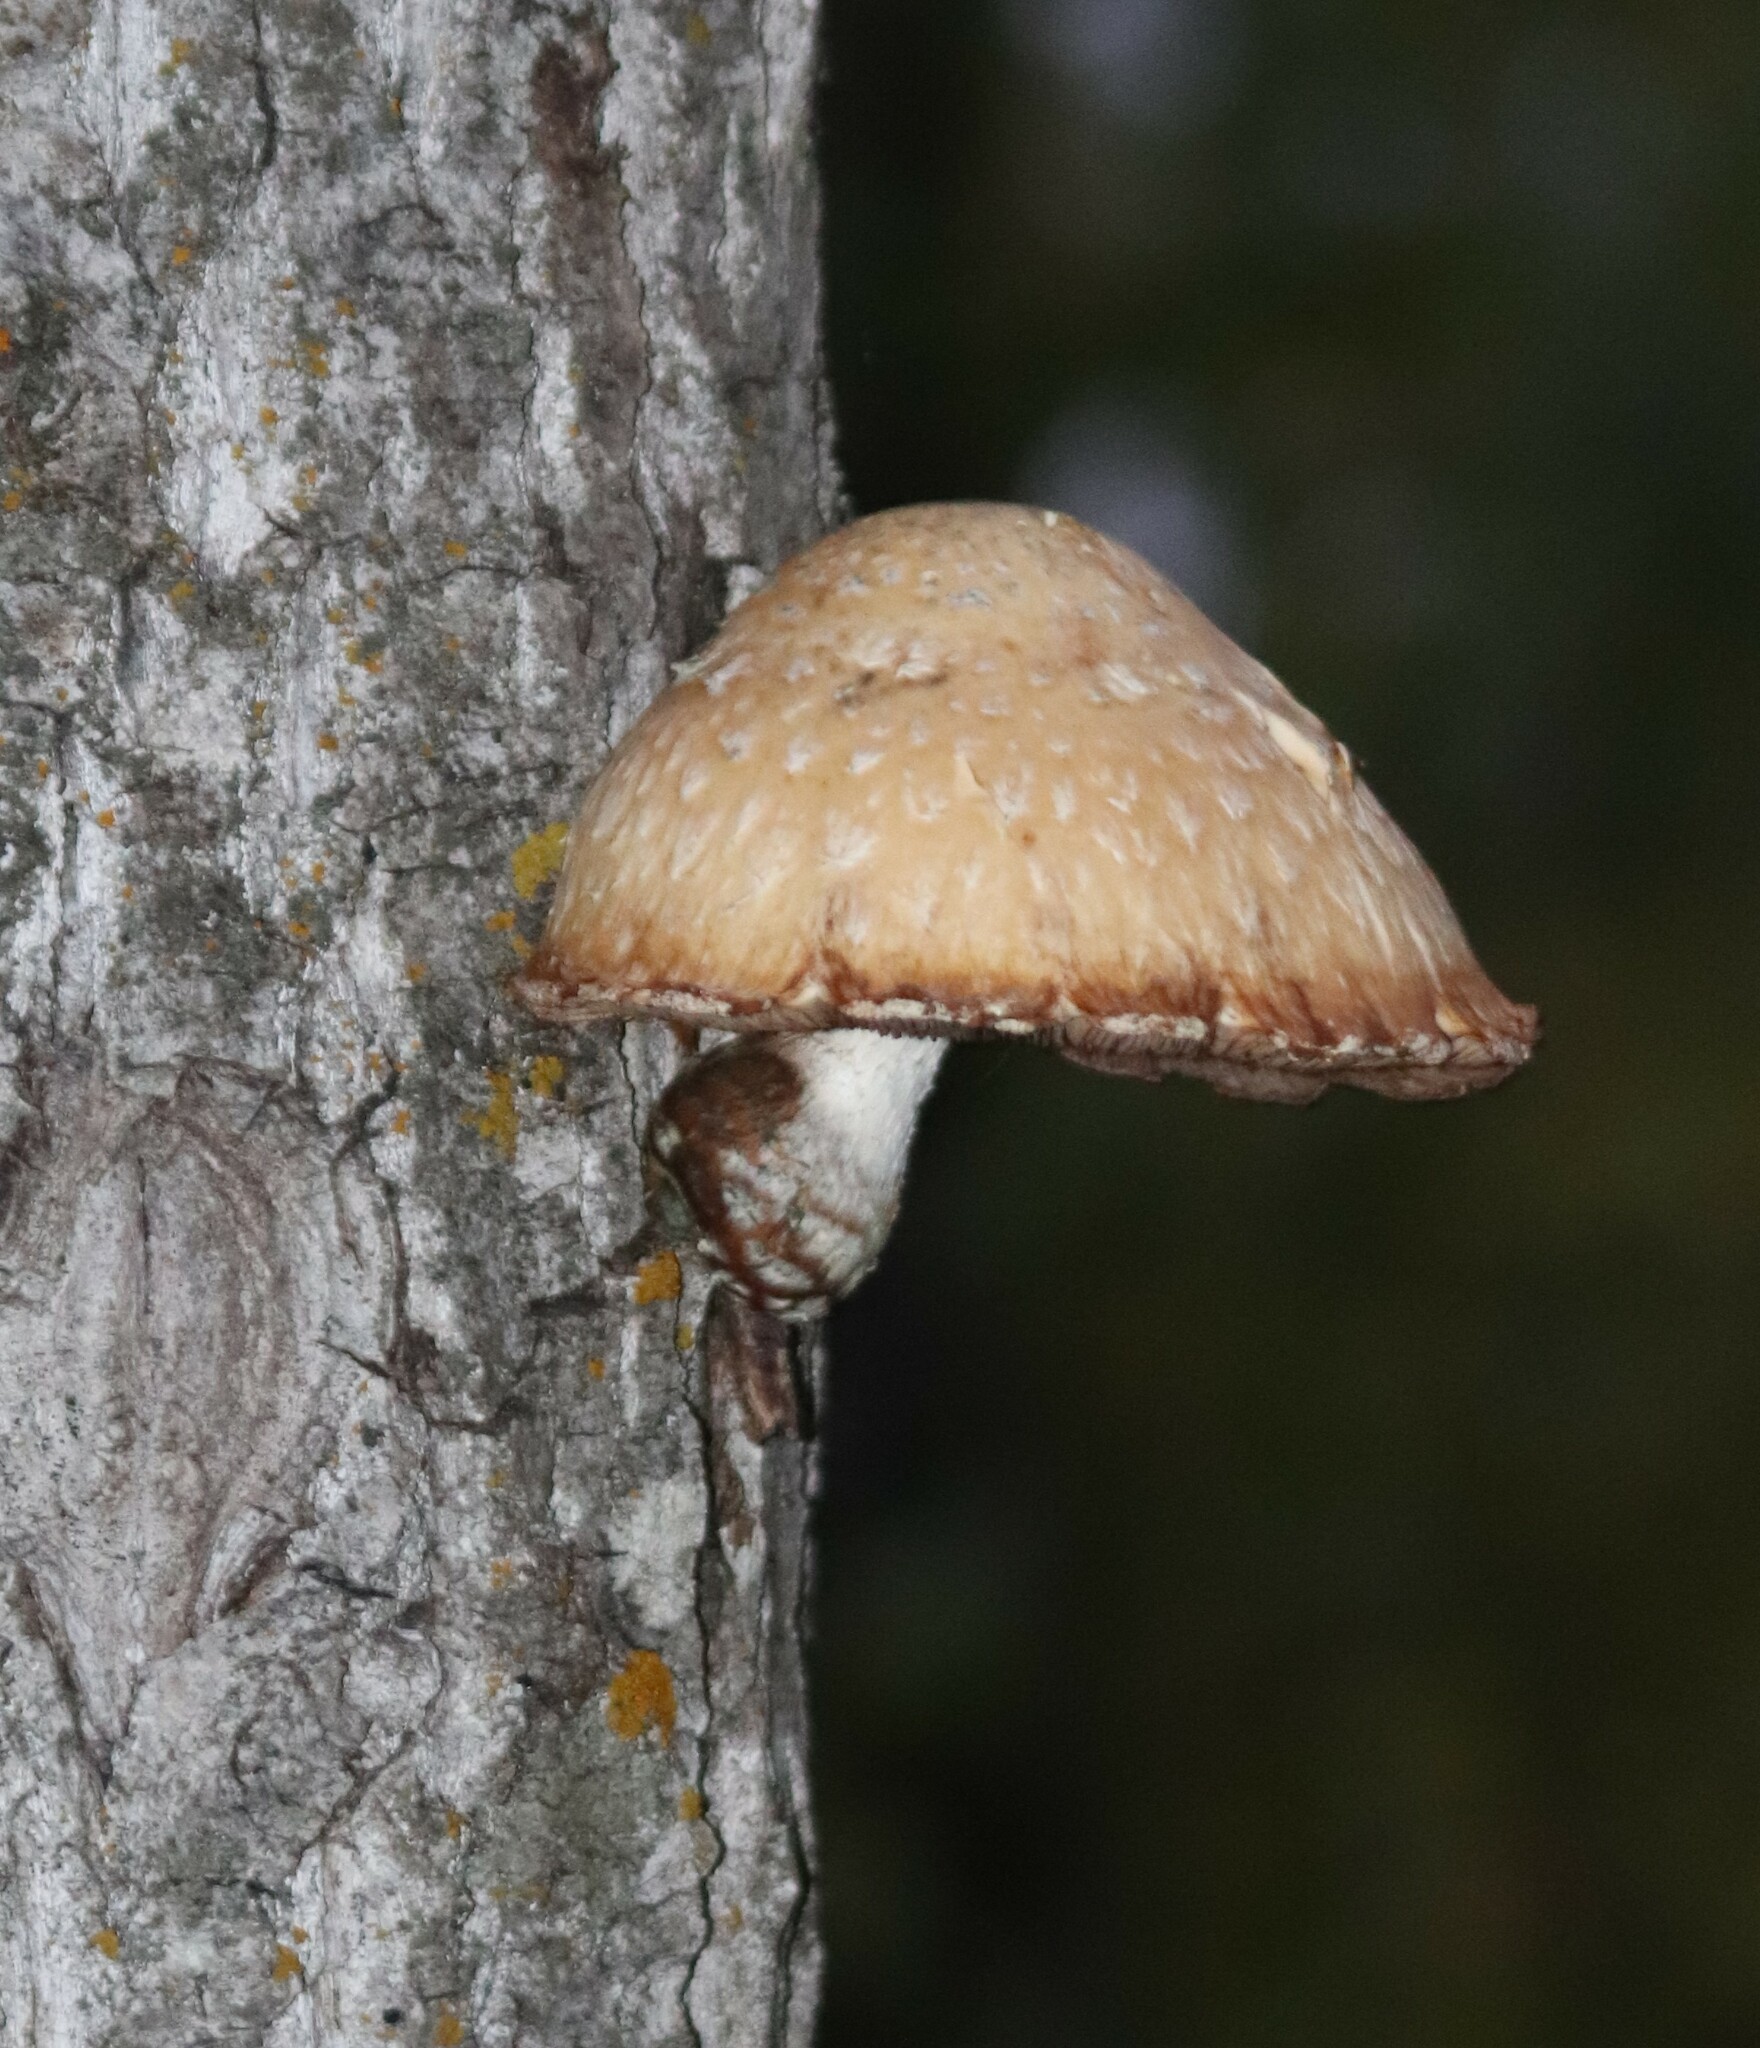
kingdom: Fungi
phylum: Basidiomycota
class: Agaricomycetes
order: Agaricales
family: Strophariaceae
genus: Pholiota
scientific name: Pholiota populnea
